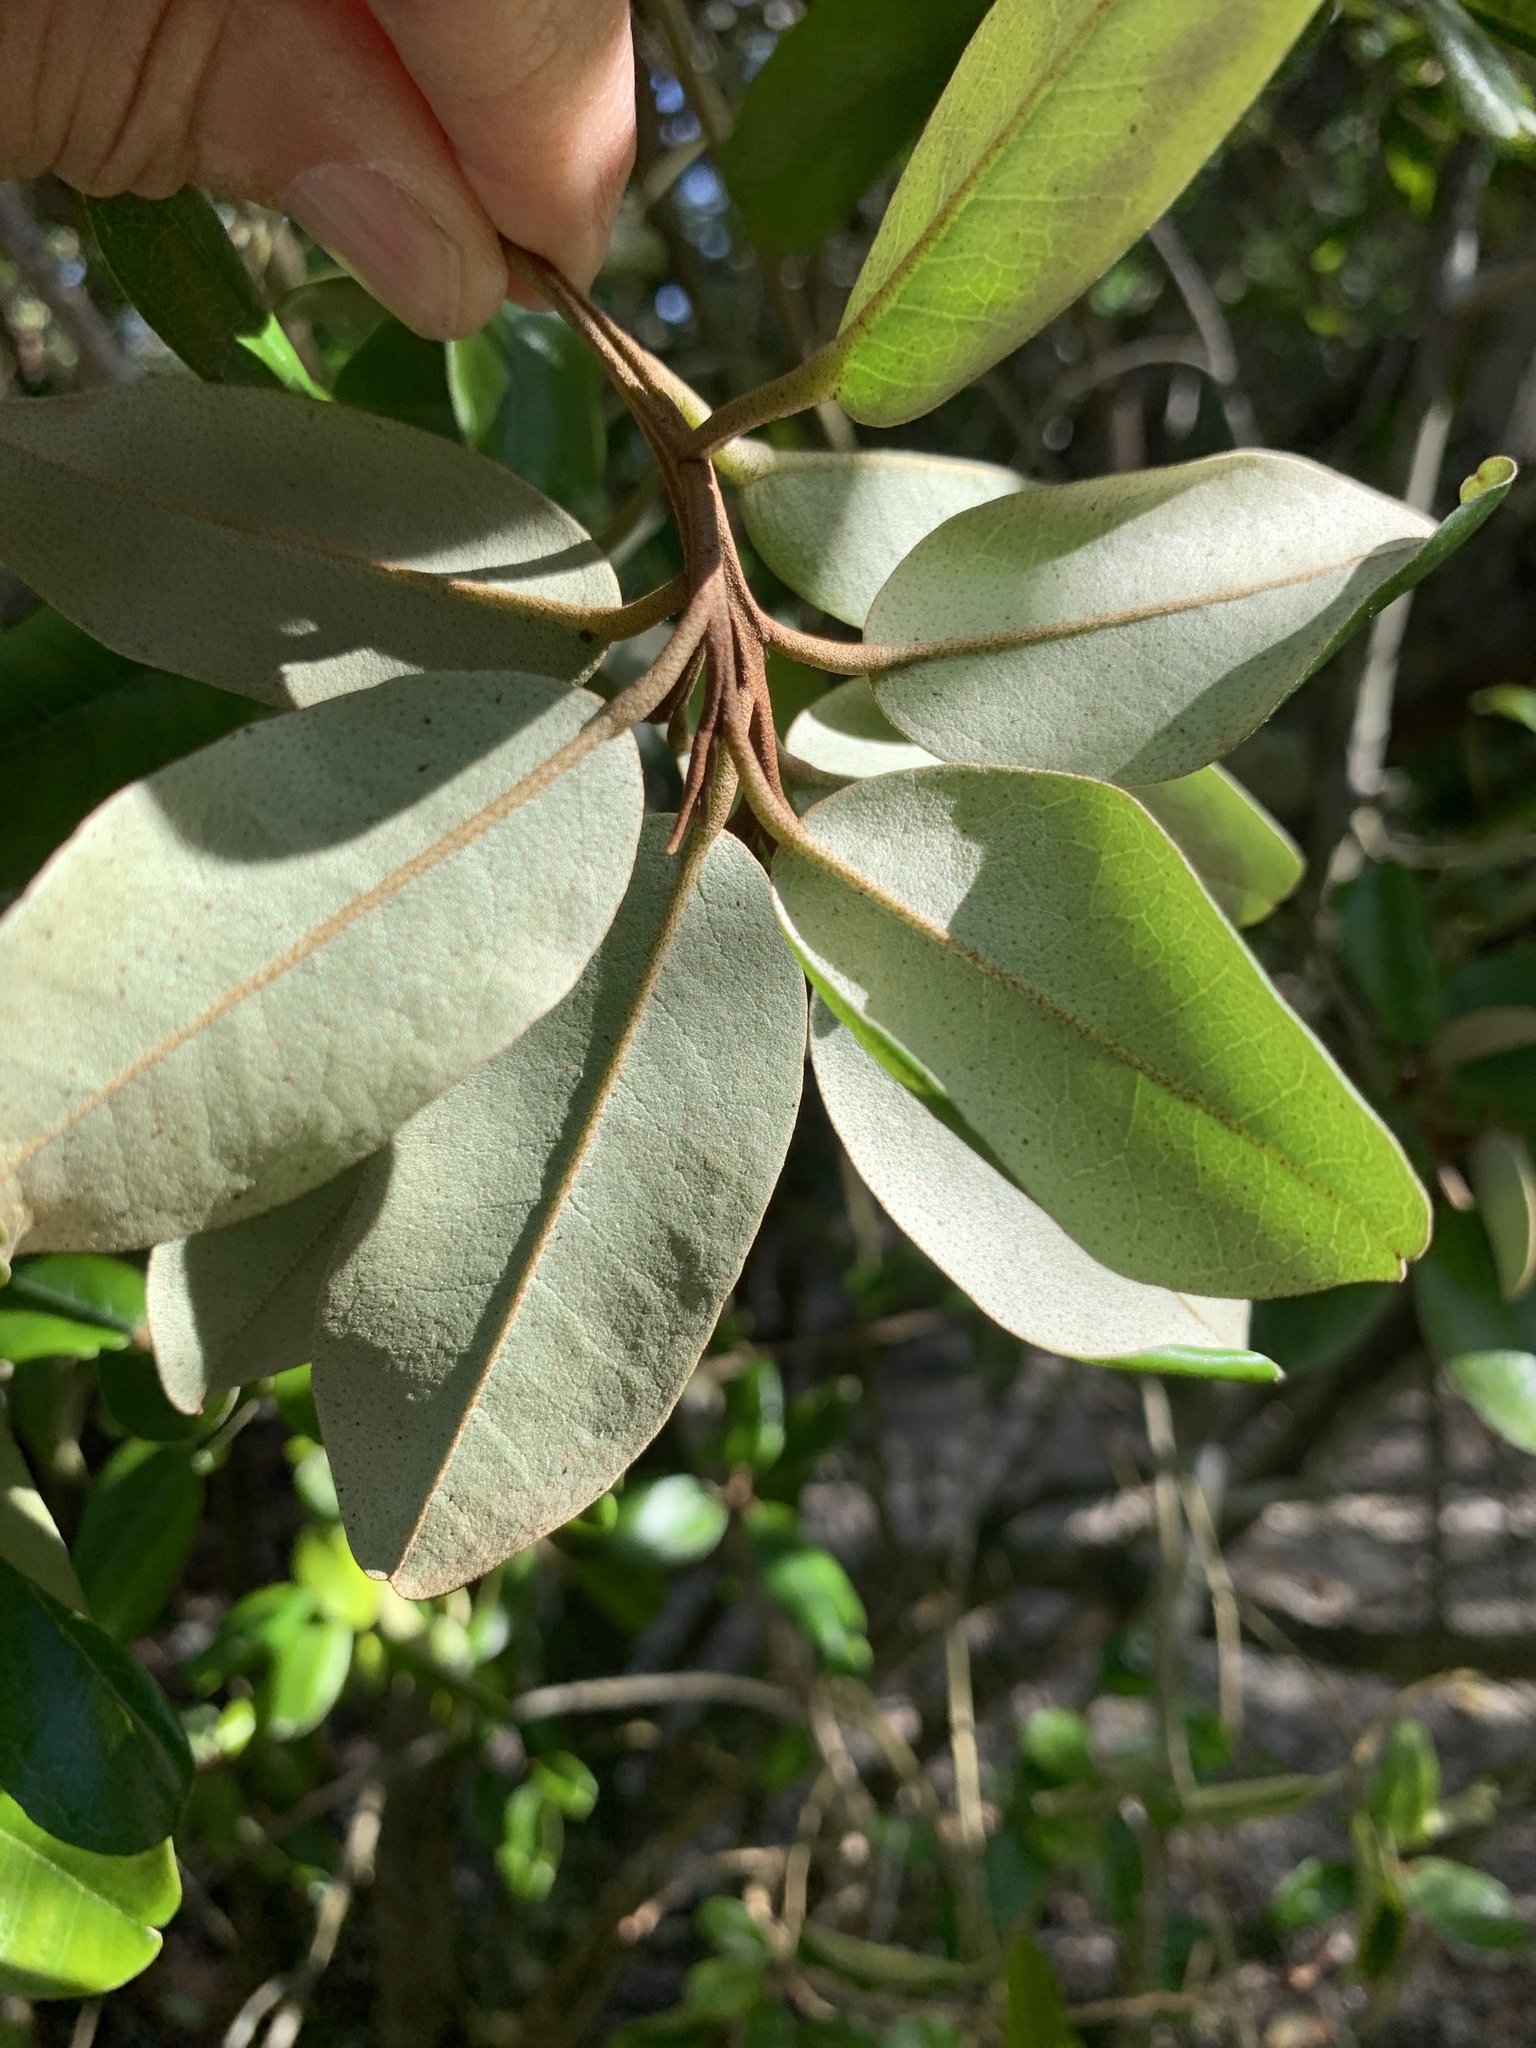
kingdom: Plantae
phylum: Tracheophyta
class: Magnoliopsida
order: Brassicales
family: Capparaceae
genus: Quadrella
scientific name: Quadrella cynophallophora
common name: Black willow
